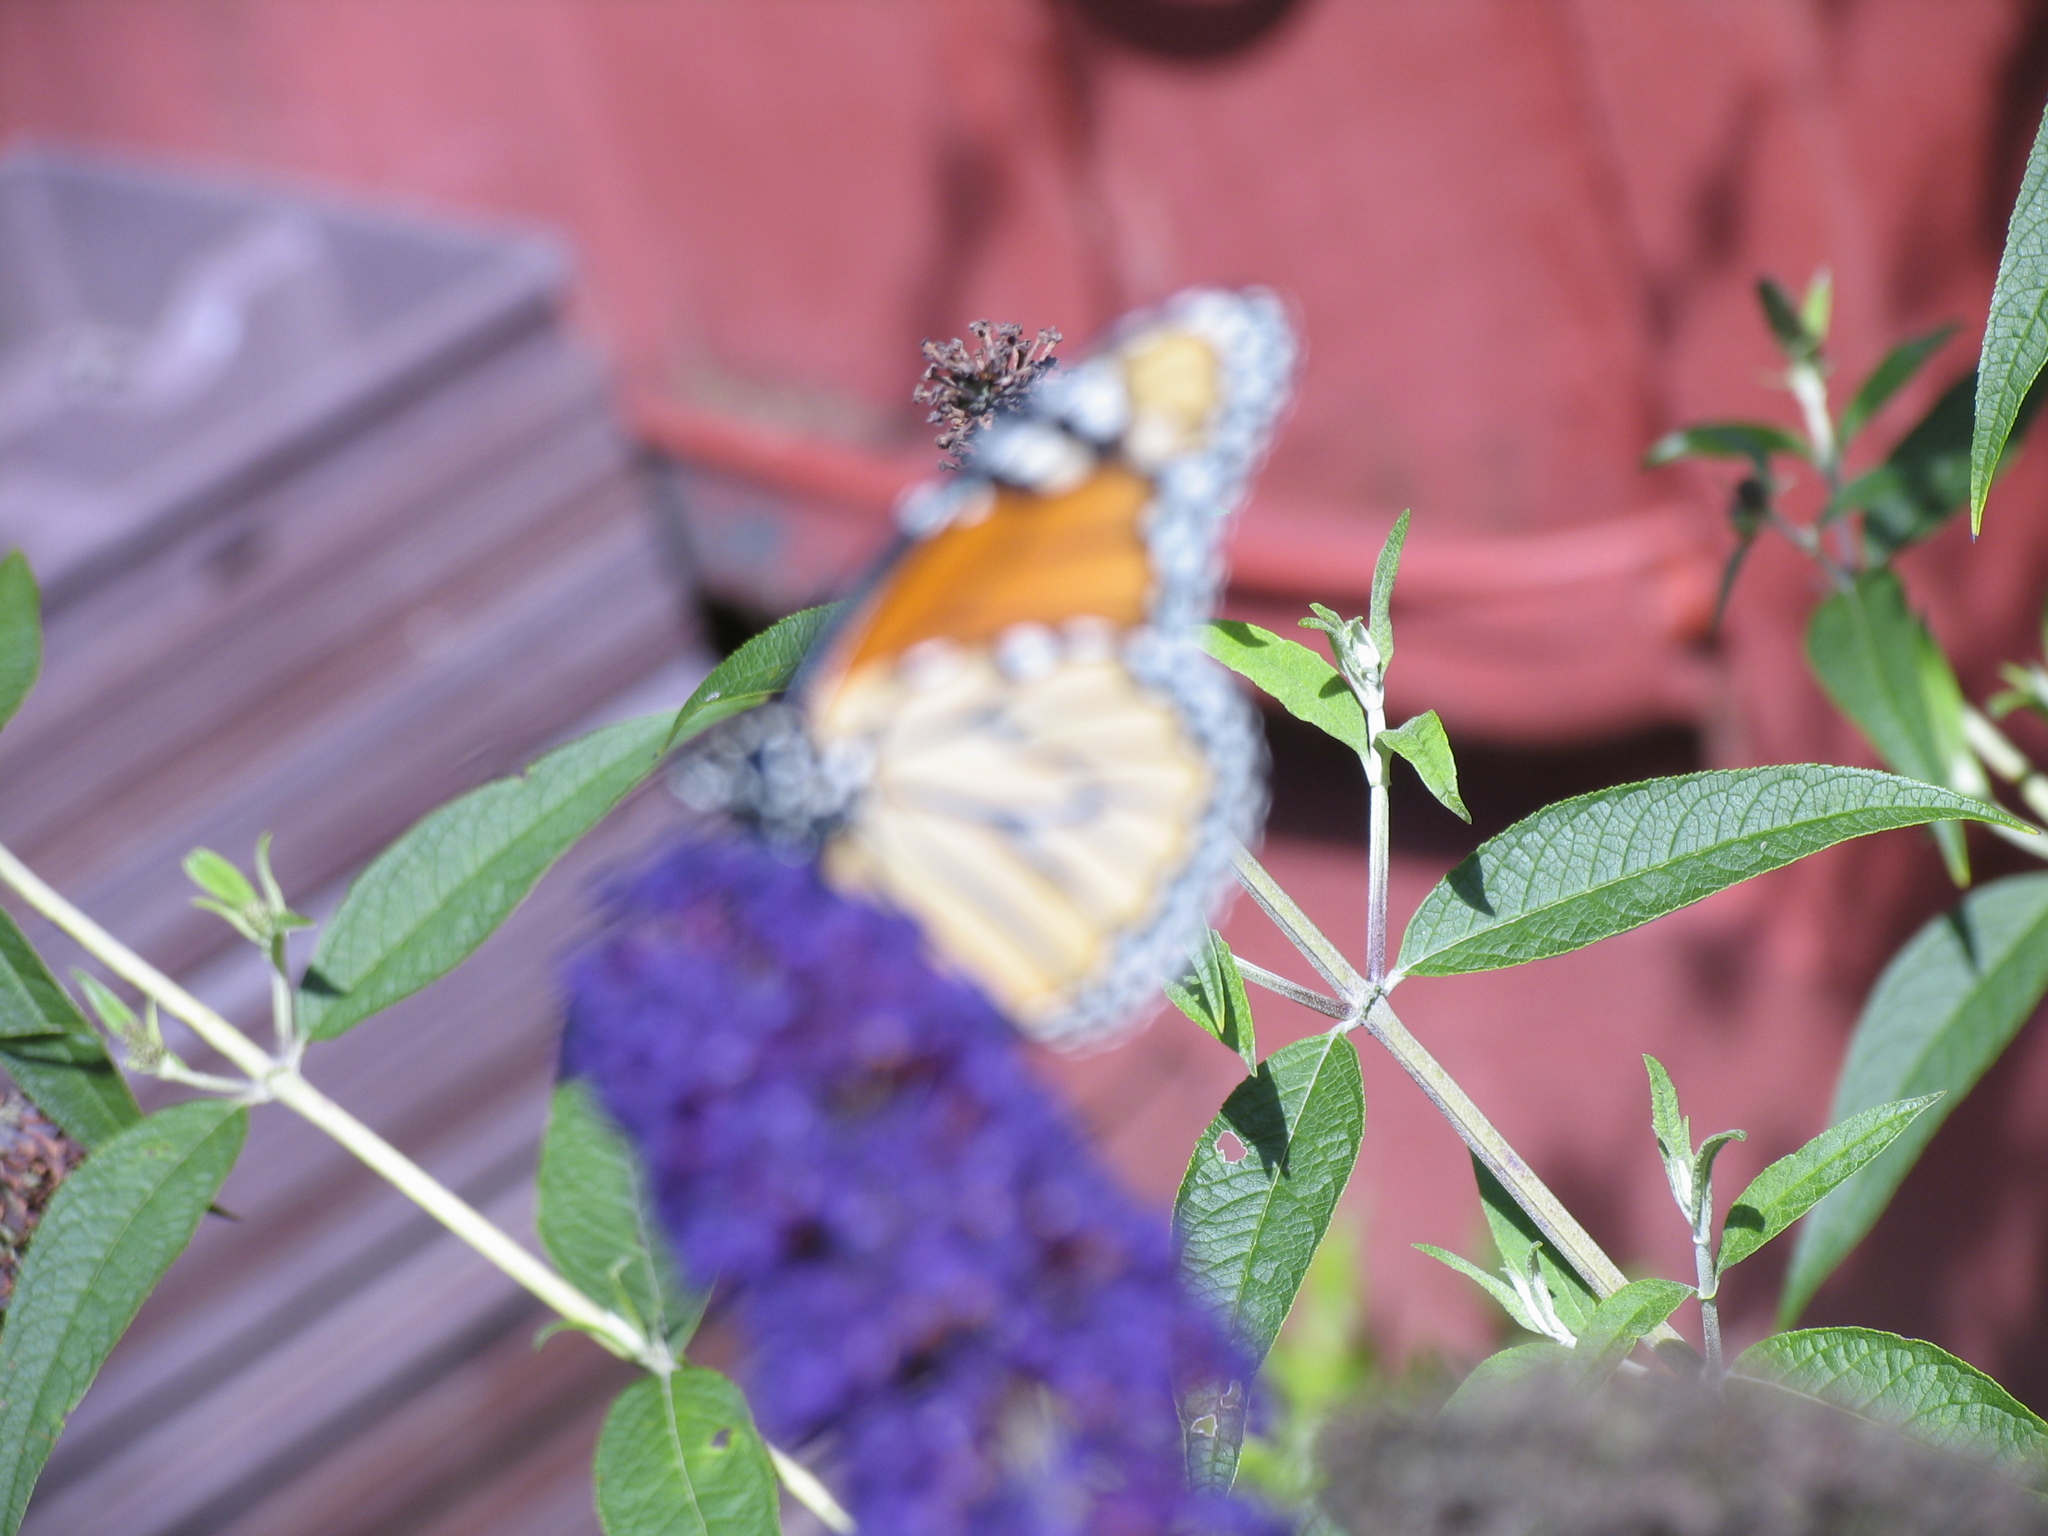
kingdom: Animalia
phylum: Arthropoda
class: Insecta
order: Lepidoptera
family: Nymphalidae
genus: Danaus
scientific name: Danaus plexippus
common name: Monarch
